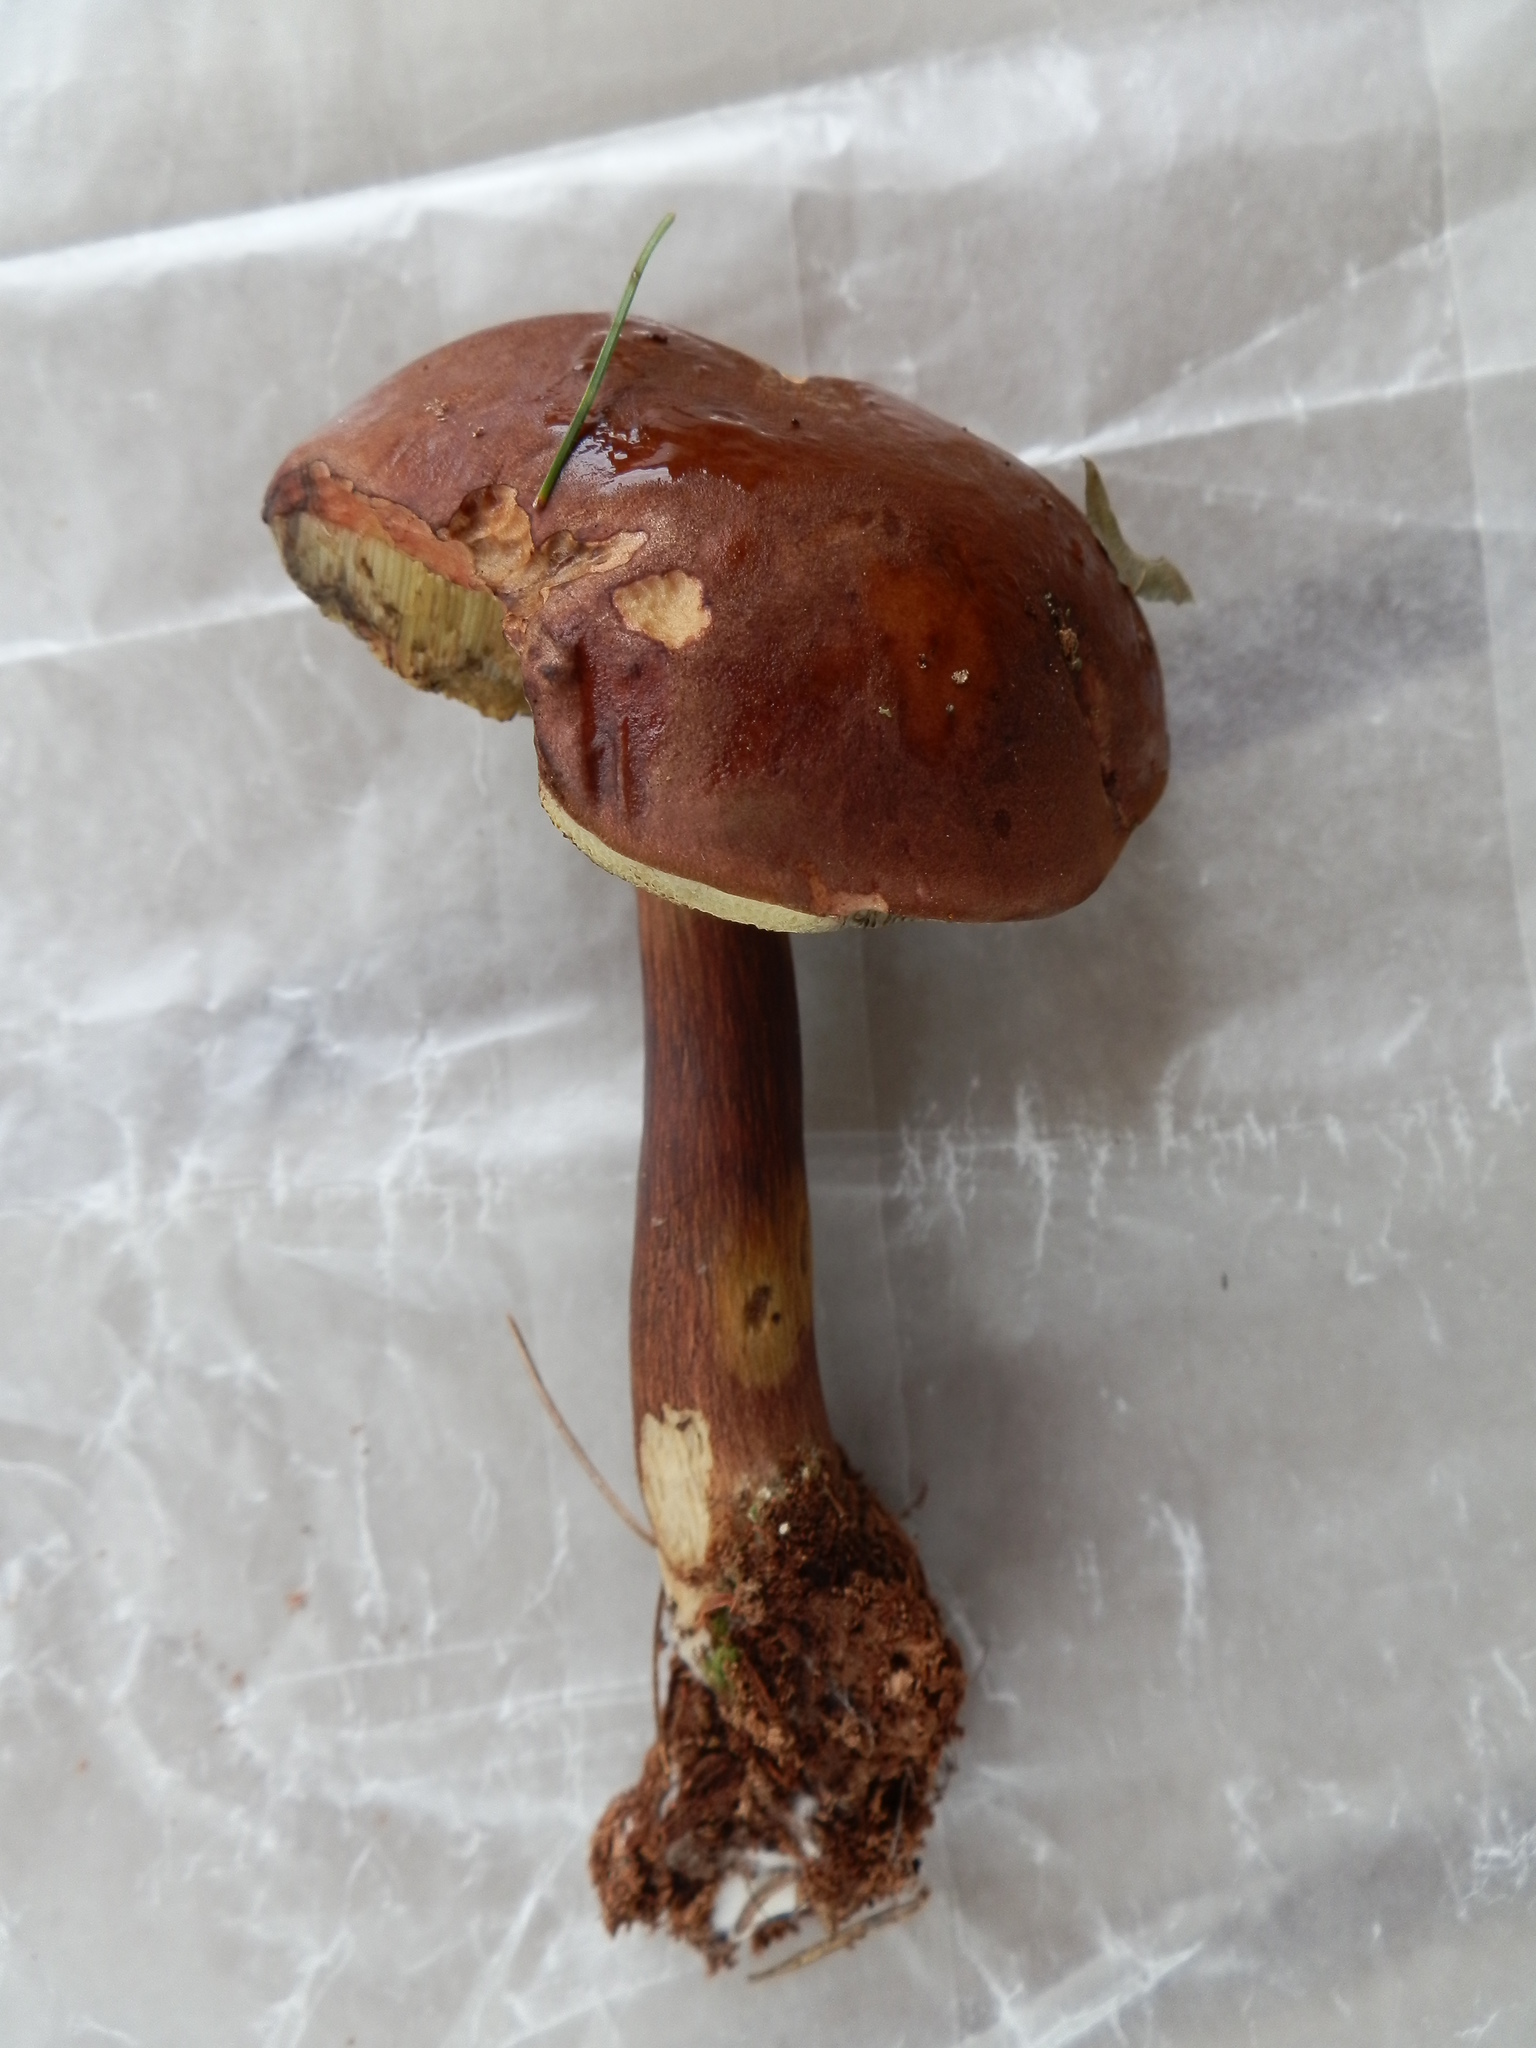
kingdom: Fungi
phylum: Basidiomycota
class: Agaricomycetes
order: Boletales
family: Boletaceae
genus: Imleria
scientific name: Imleria badia
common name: Bay bolete
